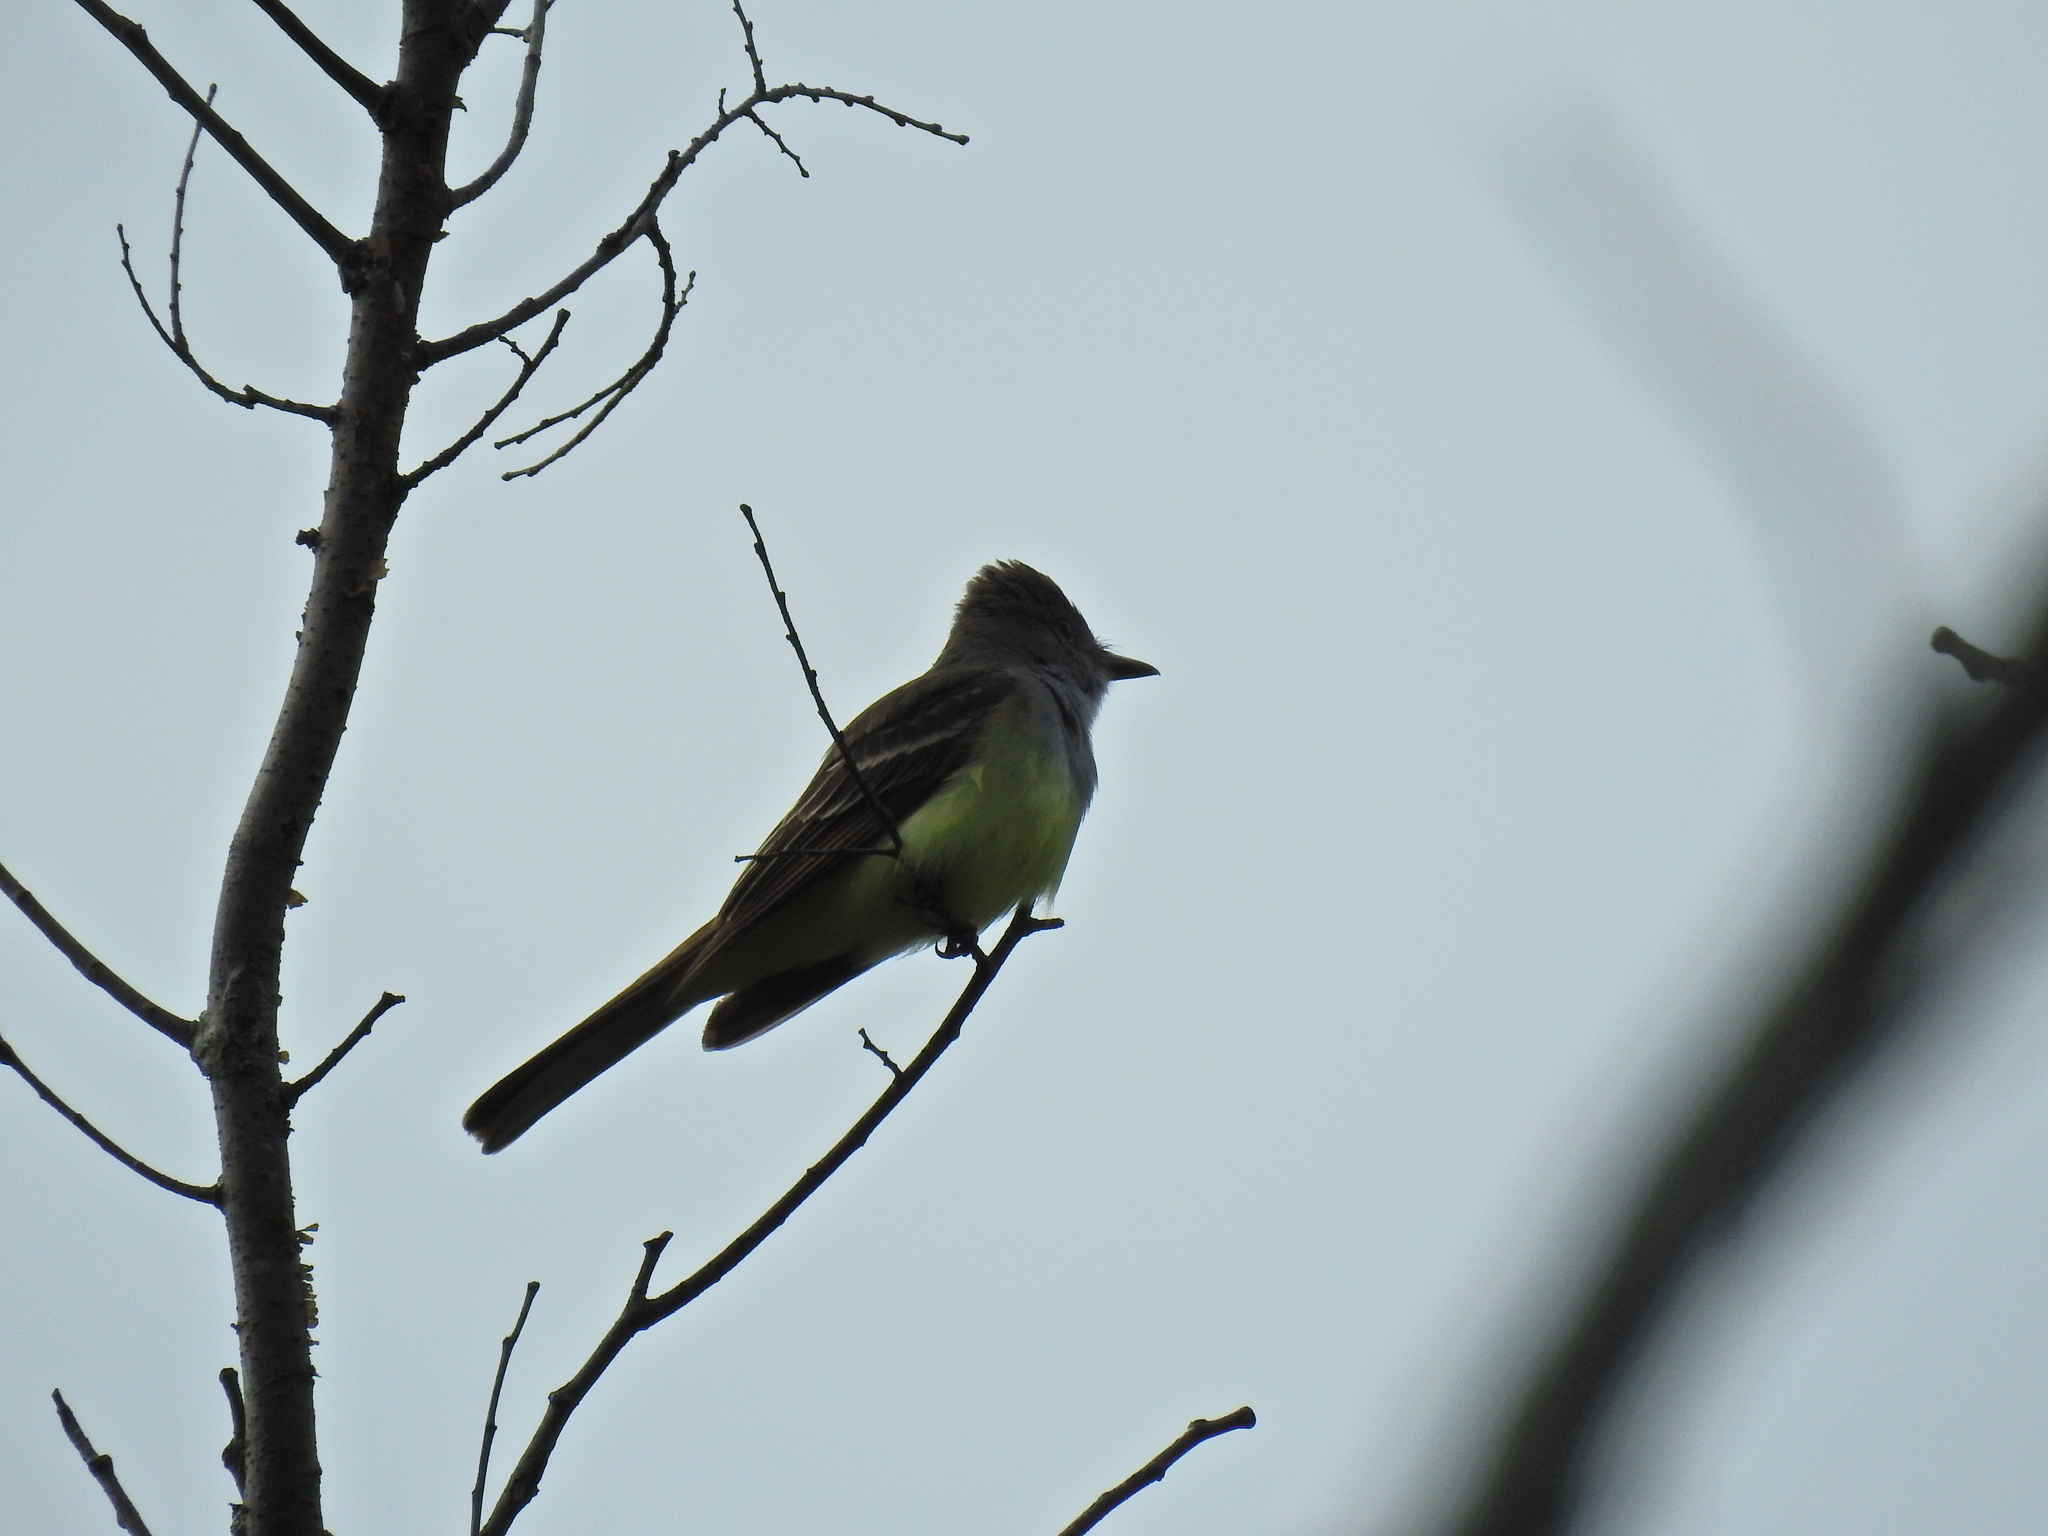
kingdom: Animalia
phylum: Chordata
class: Aves
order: Passeriformes
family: Tyrannidae
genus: Myiarchus
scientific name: Myiarchus crinitus
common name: Great crested flycatcher
